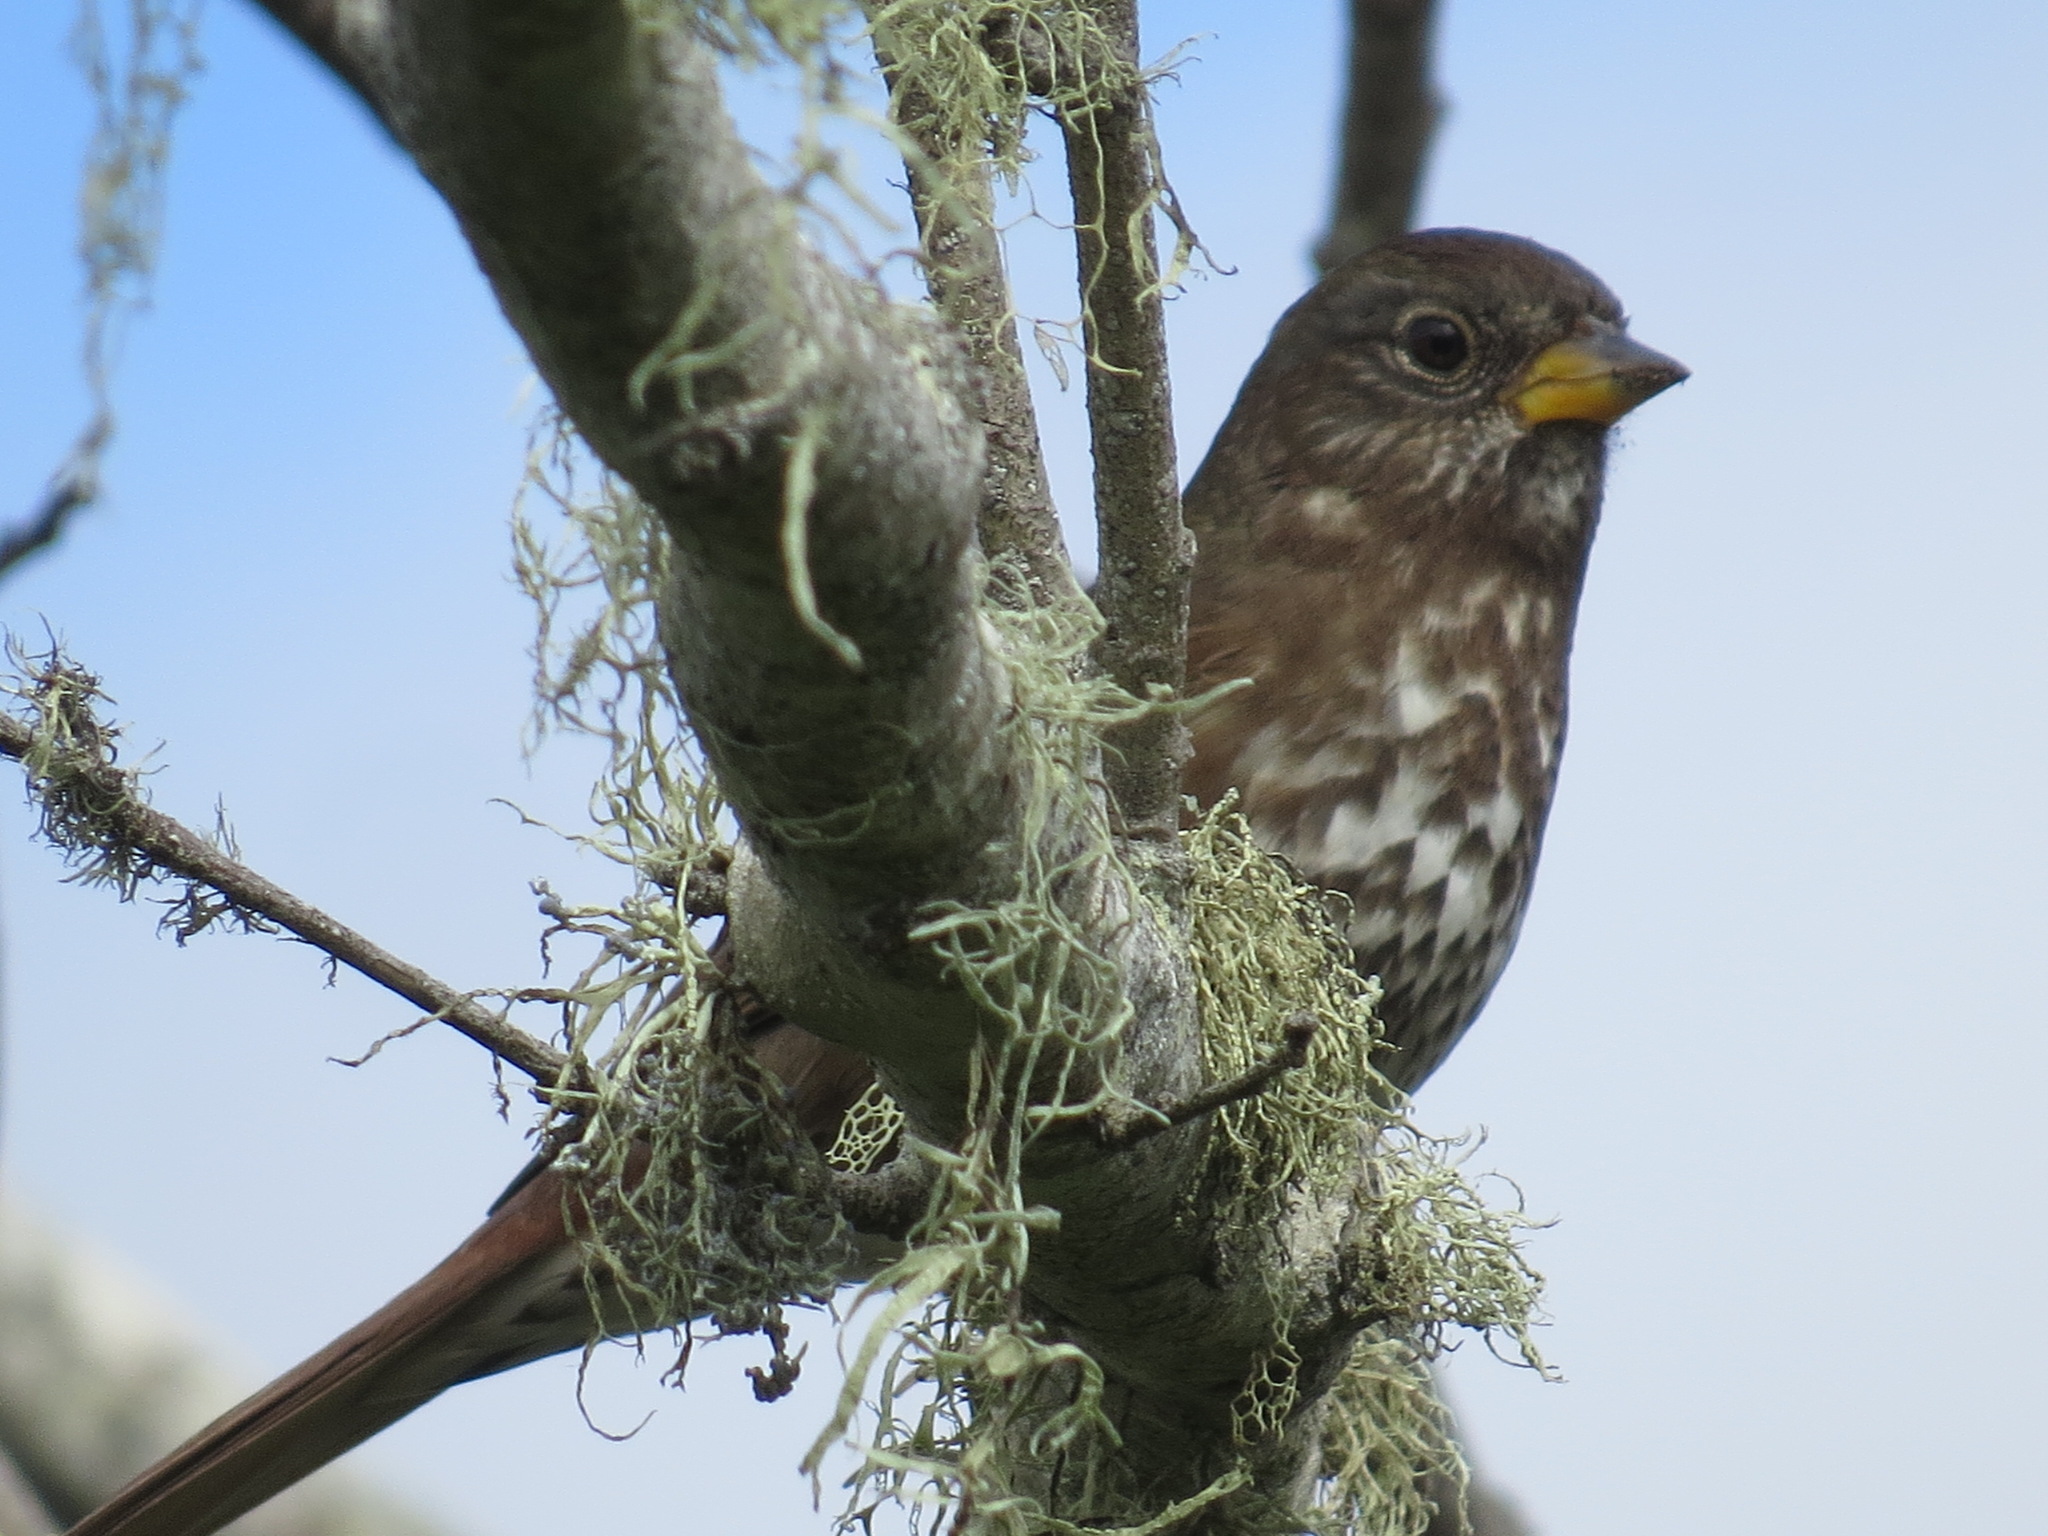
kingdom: Animalia
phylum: Chordata
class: Aves
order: Passeriformes
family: Passerellidae
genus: Passerella
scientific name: Passerella iliaca
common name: Fox sparrow
